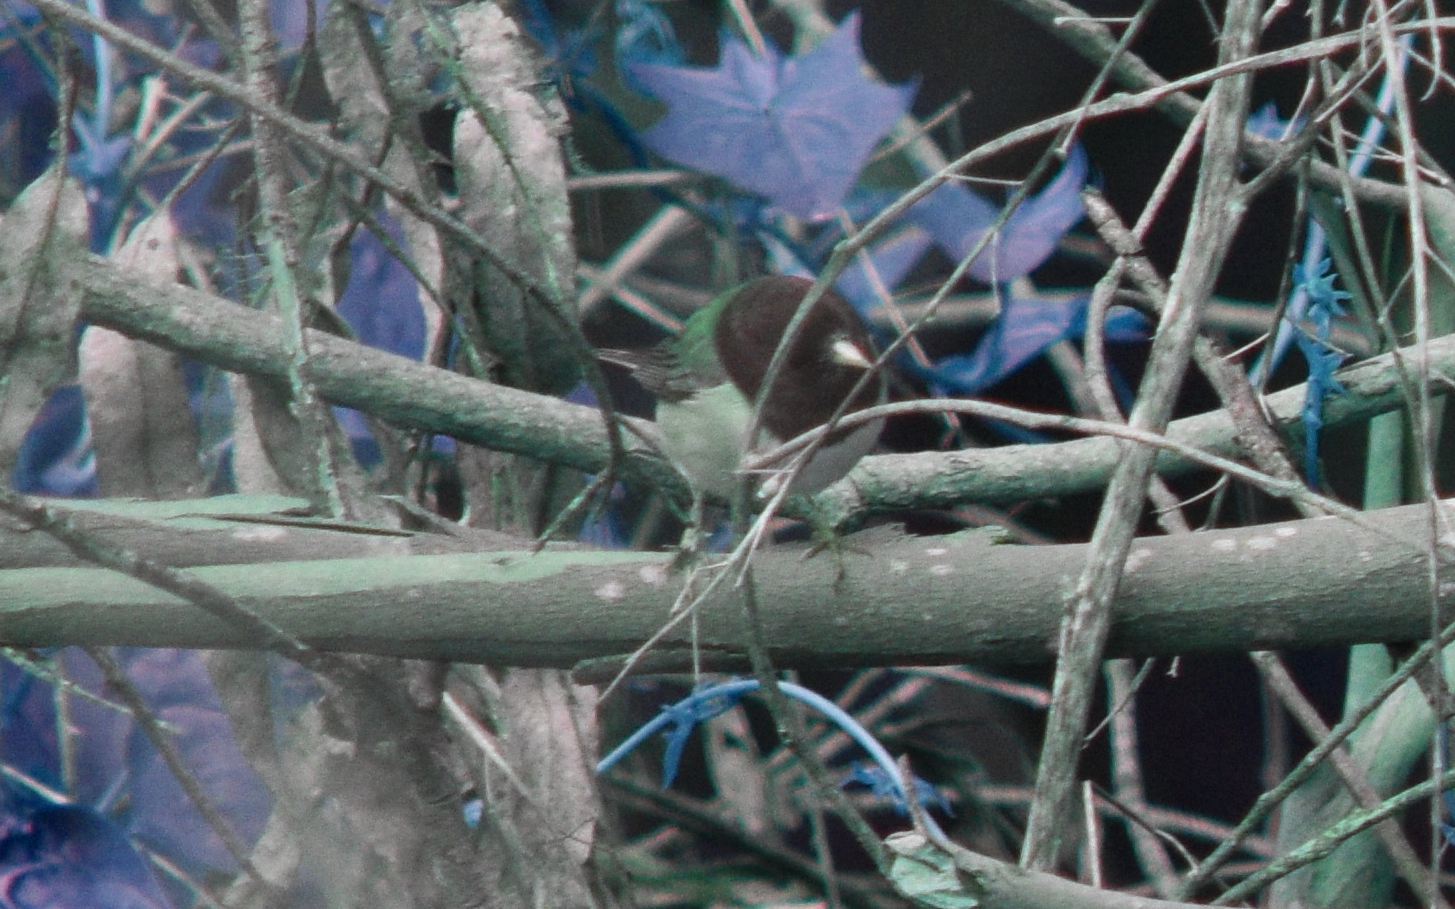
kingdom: Animalia
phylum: Chordata
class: Aves
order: Passeriformes
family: Passerellidae
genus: Junco
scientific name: Junco hyemalis
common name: Dark-eyed junco
